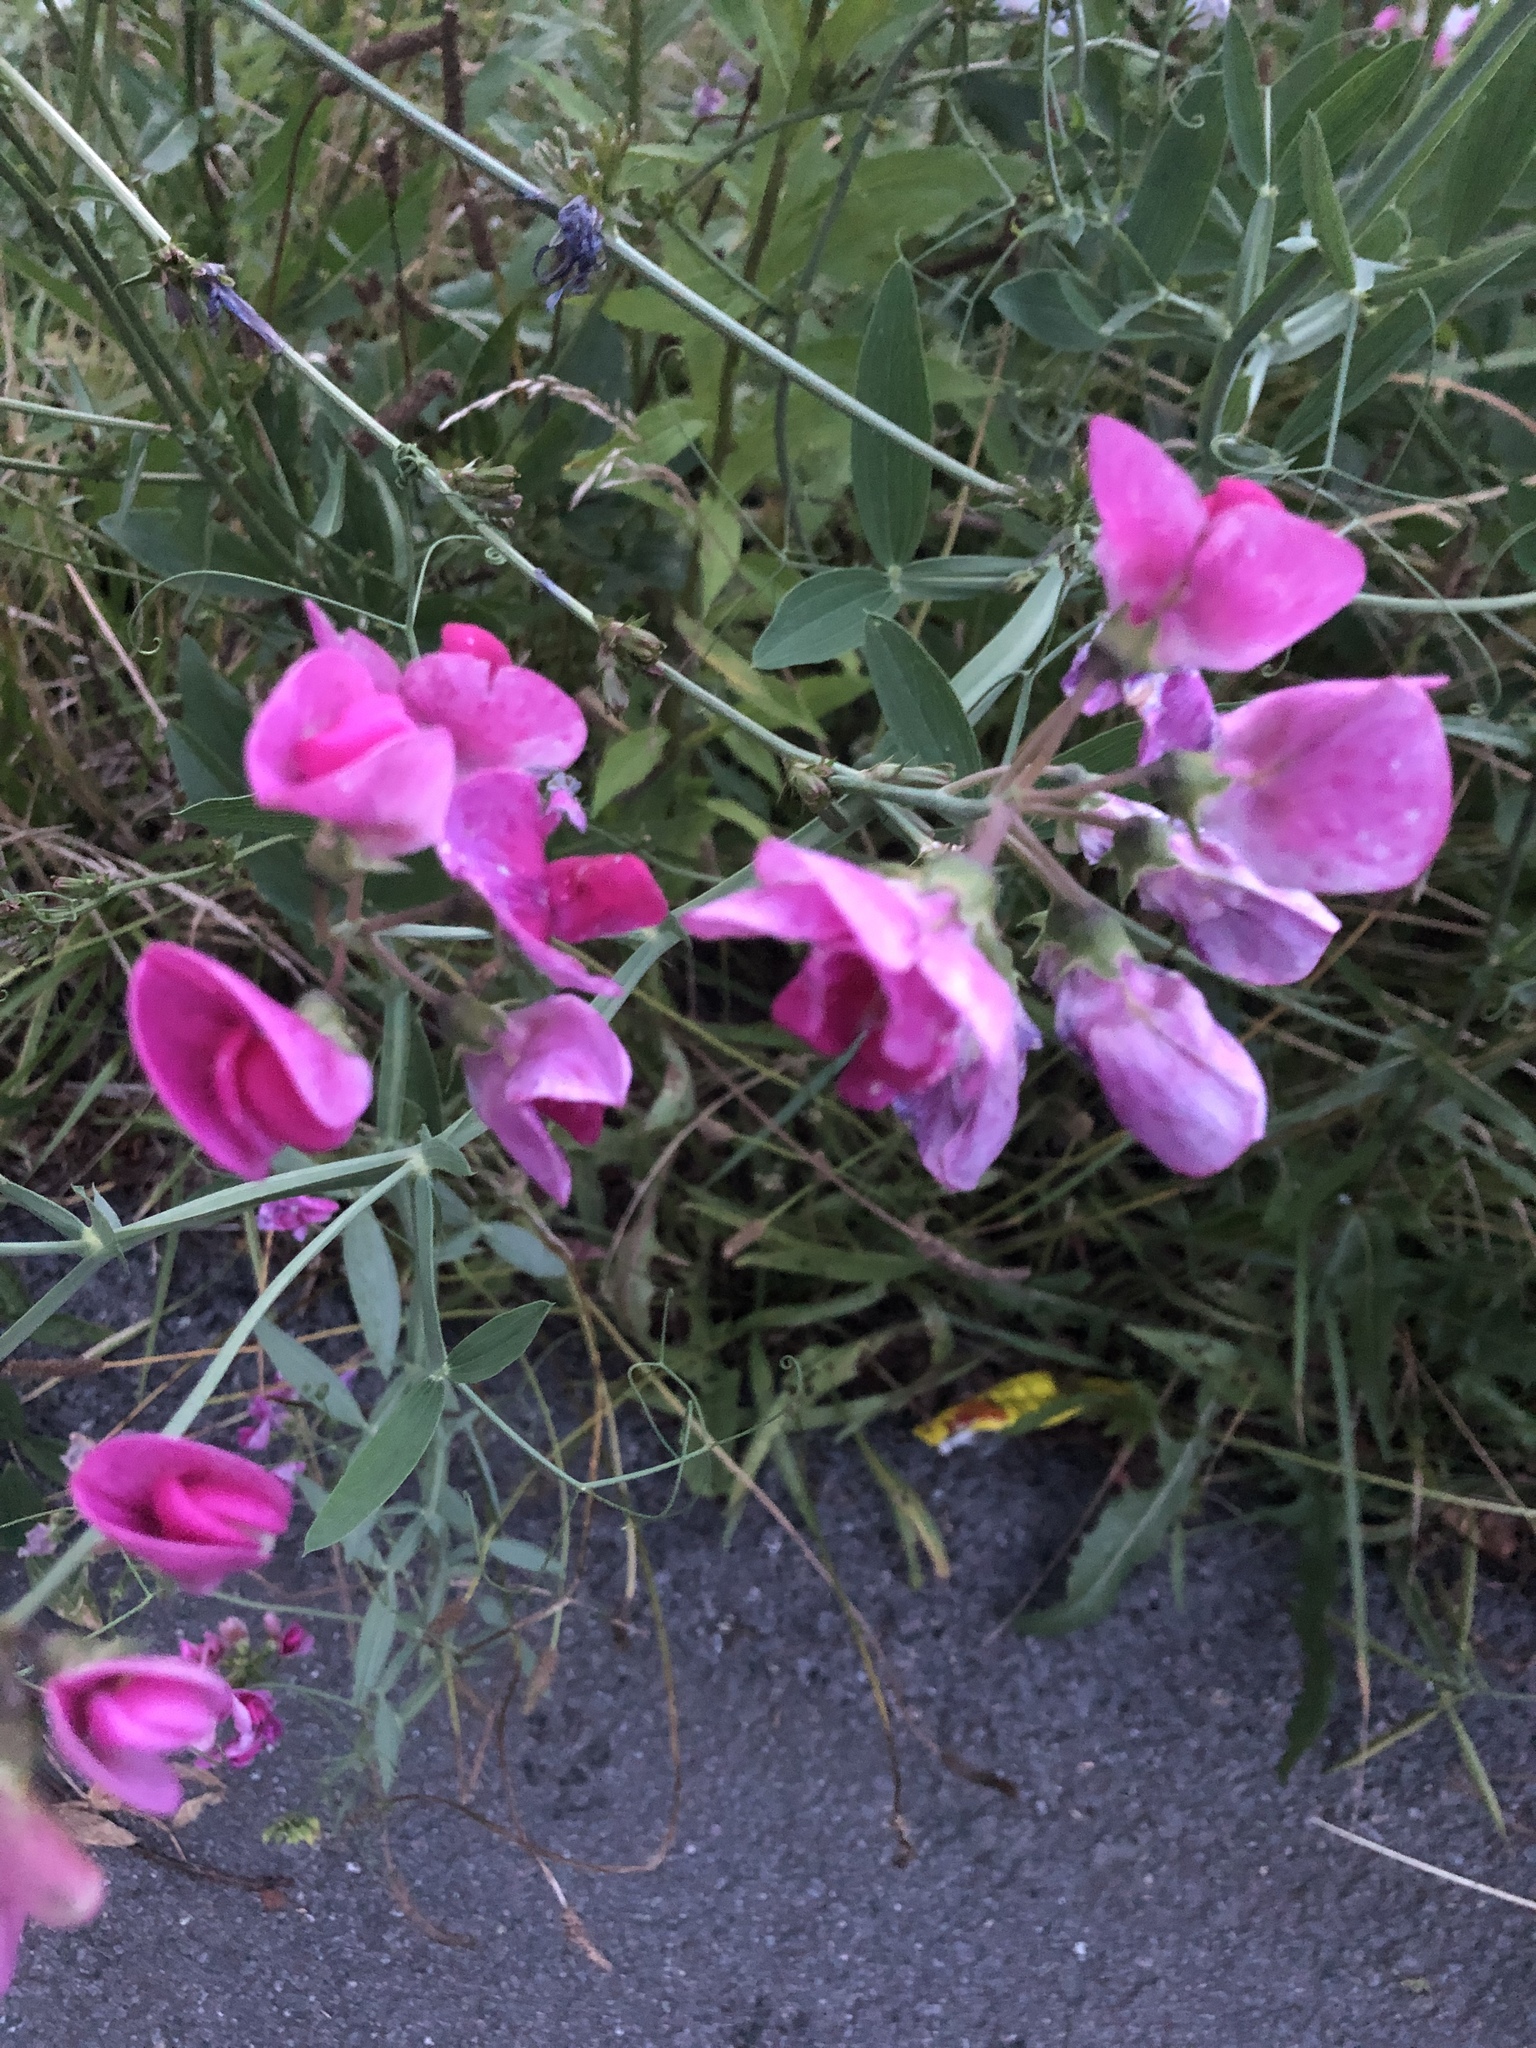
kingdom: Plantae
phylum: Tracheophyta
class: Magnoliopsida
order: Fabales
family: Fabaceae
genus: Lathyrus
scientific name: Lathyrus latifolius
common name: Perennial pea
